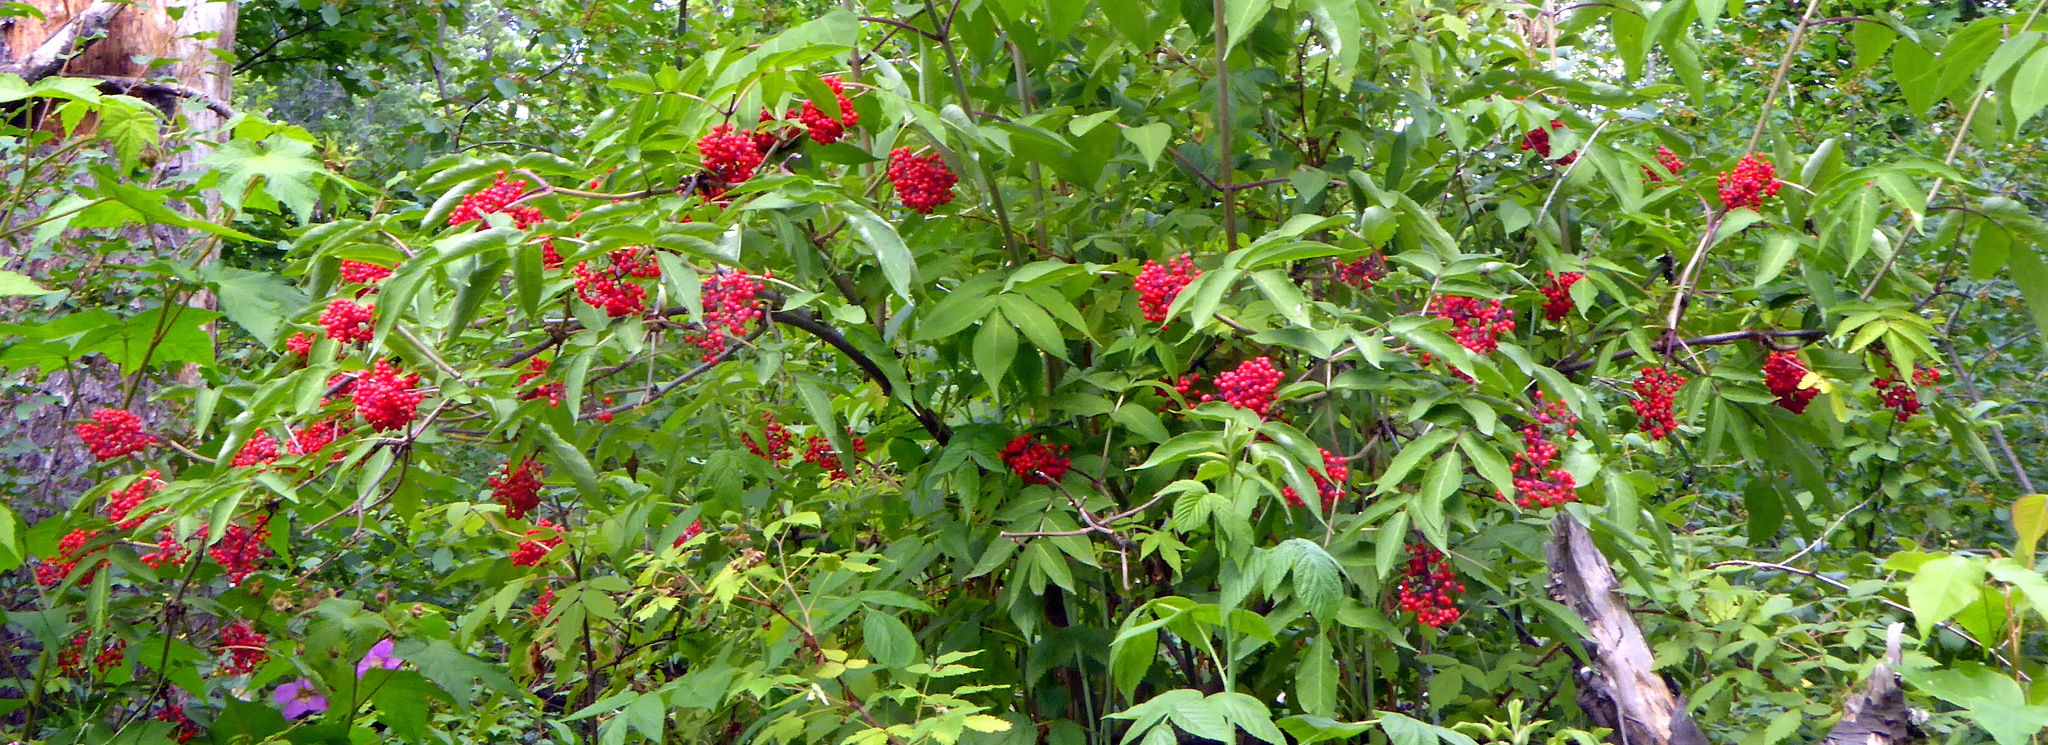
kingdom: Plantae
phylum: Tracheophyta
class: Magnoliopsida
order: Dipsacales
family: Viburnaceae
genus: Sambucus
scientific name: Sambucus racemosa
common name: Red-berried elder
